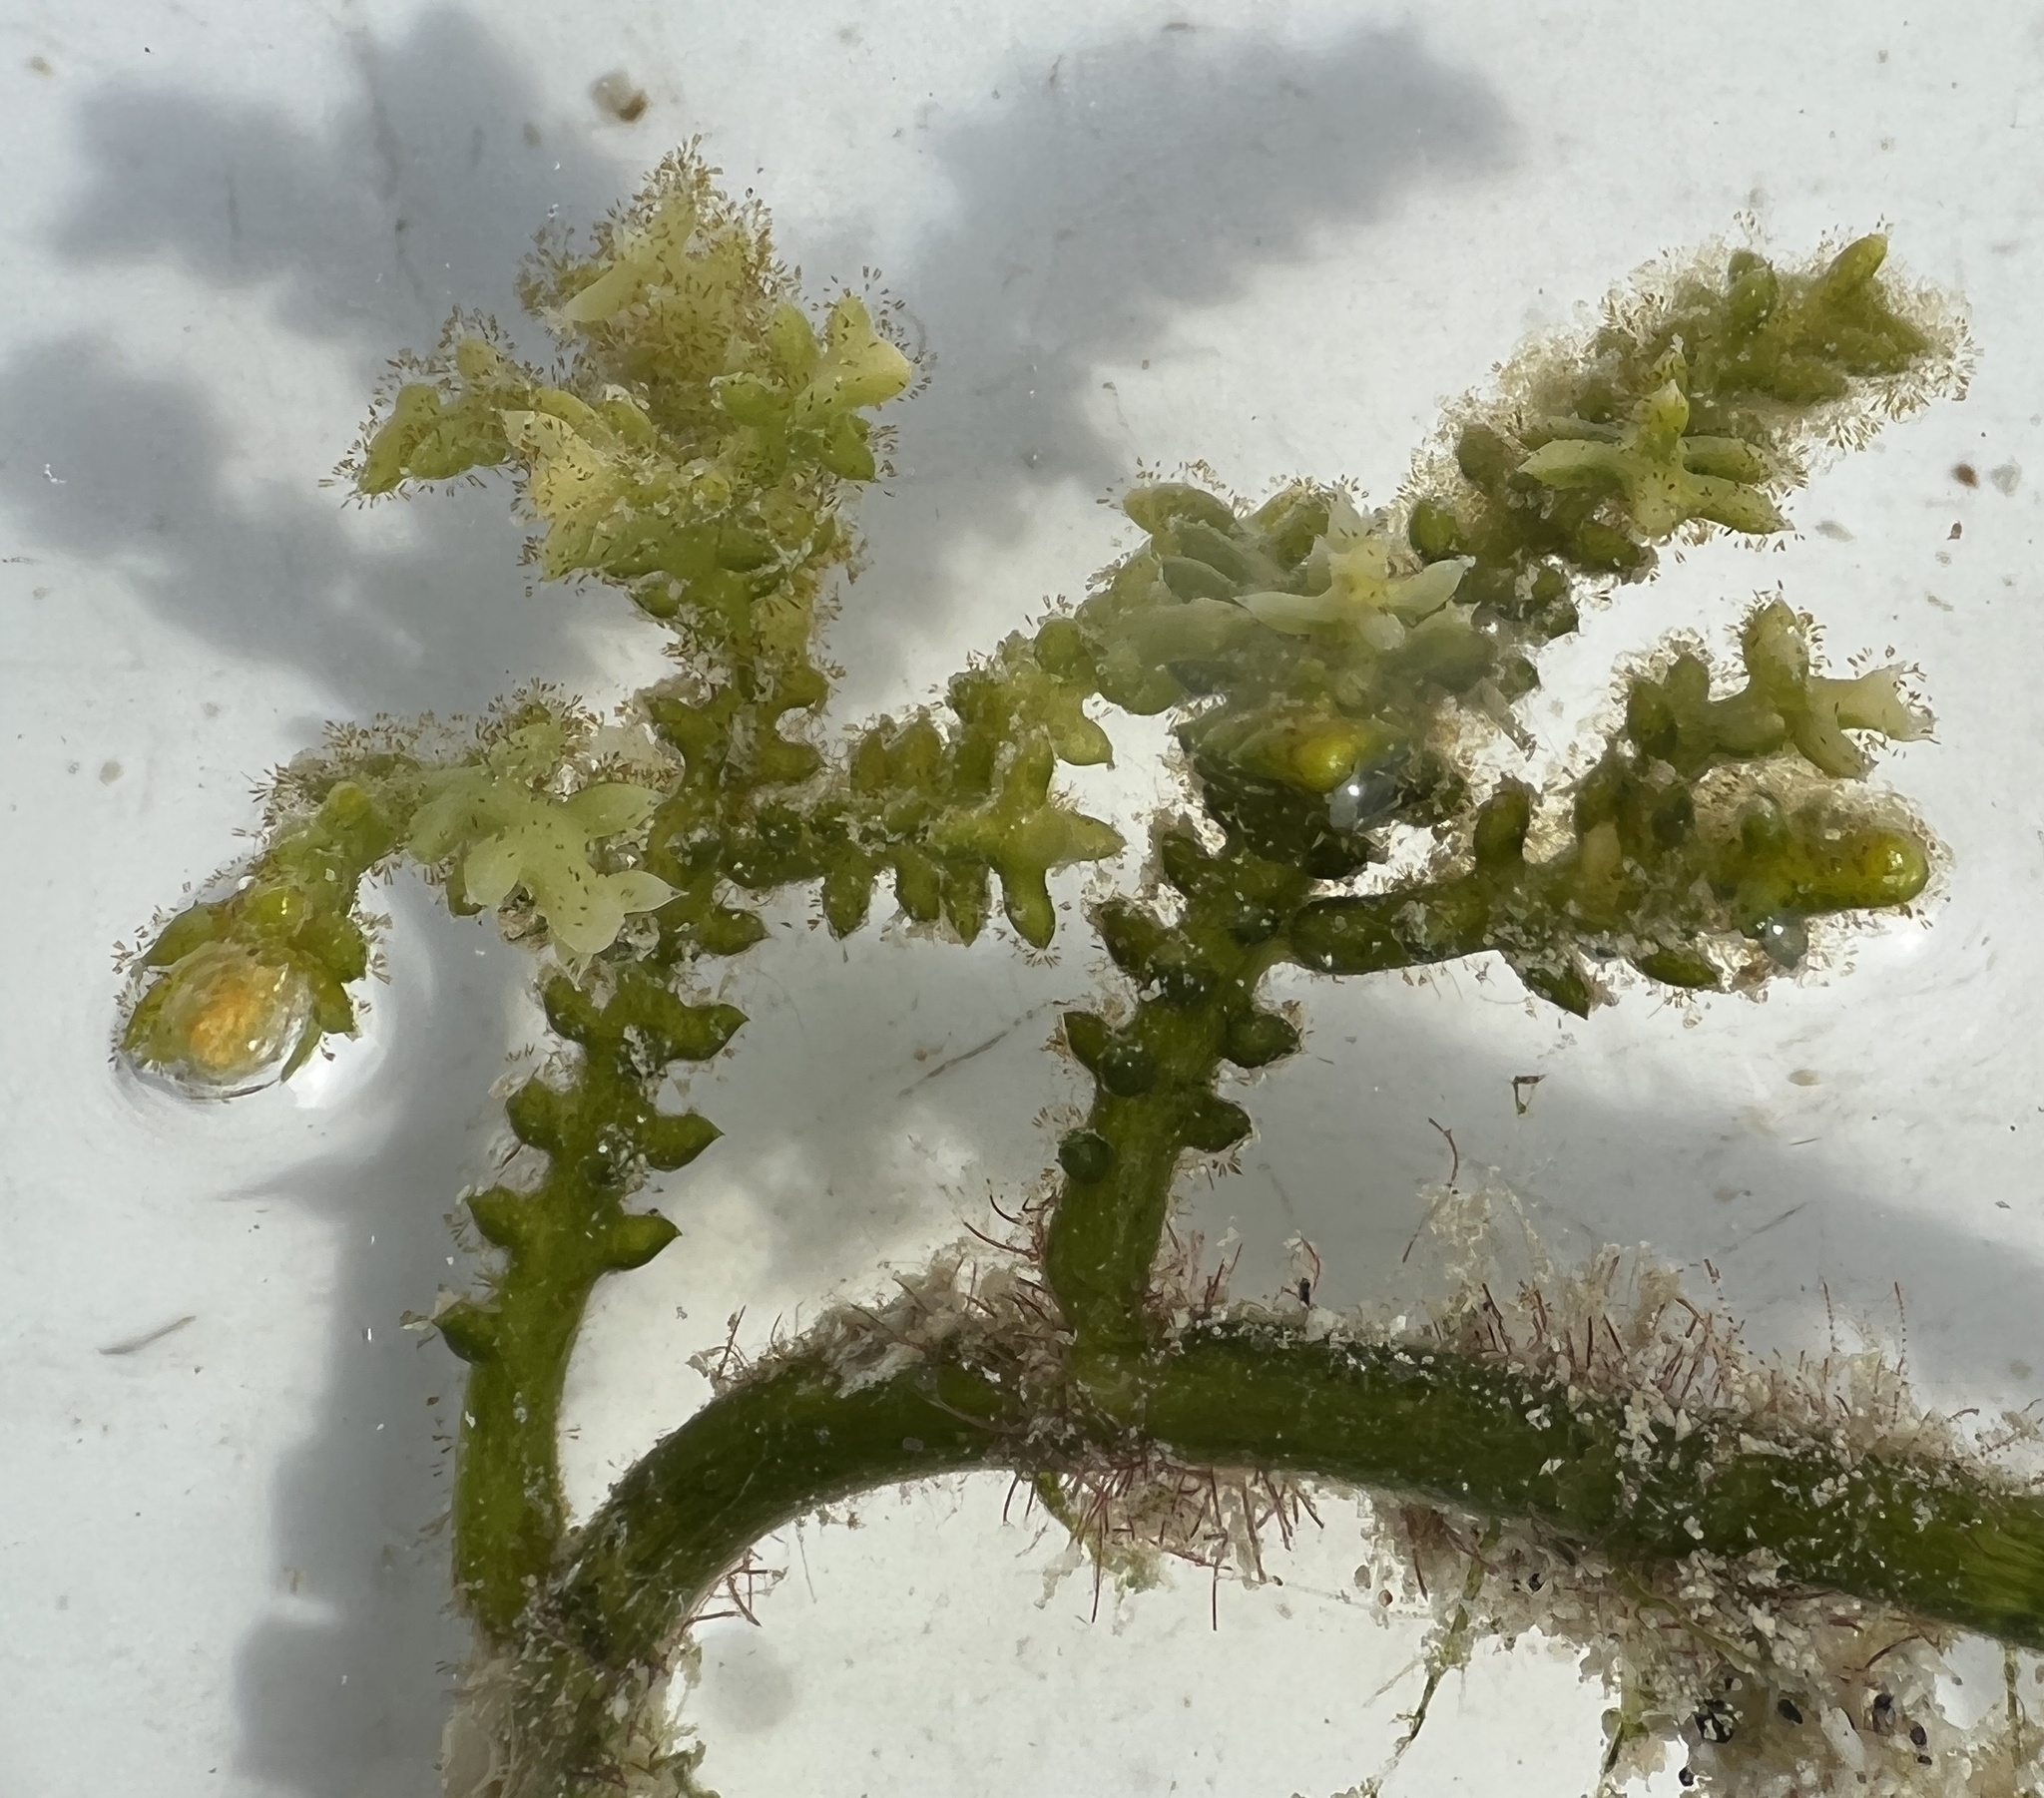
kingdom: Plantae
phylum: Chlorophyta
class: Ulvophyceae
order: Bryopsidales
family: Caulerpaceae
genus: Caulerpa
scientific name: Caulerpa cupressoides
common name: Cactus tree algae
